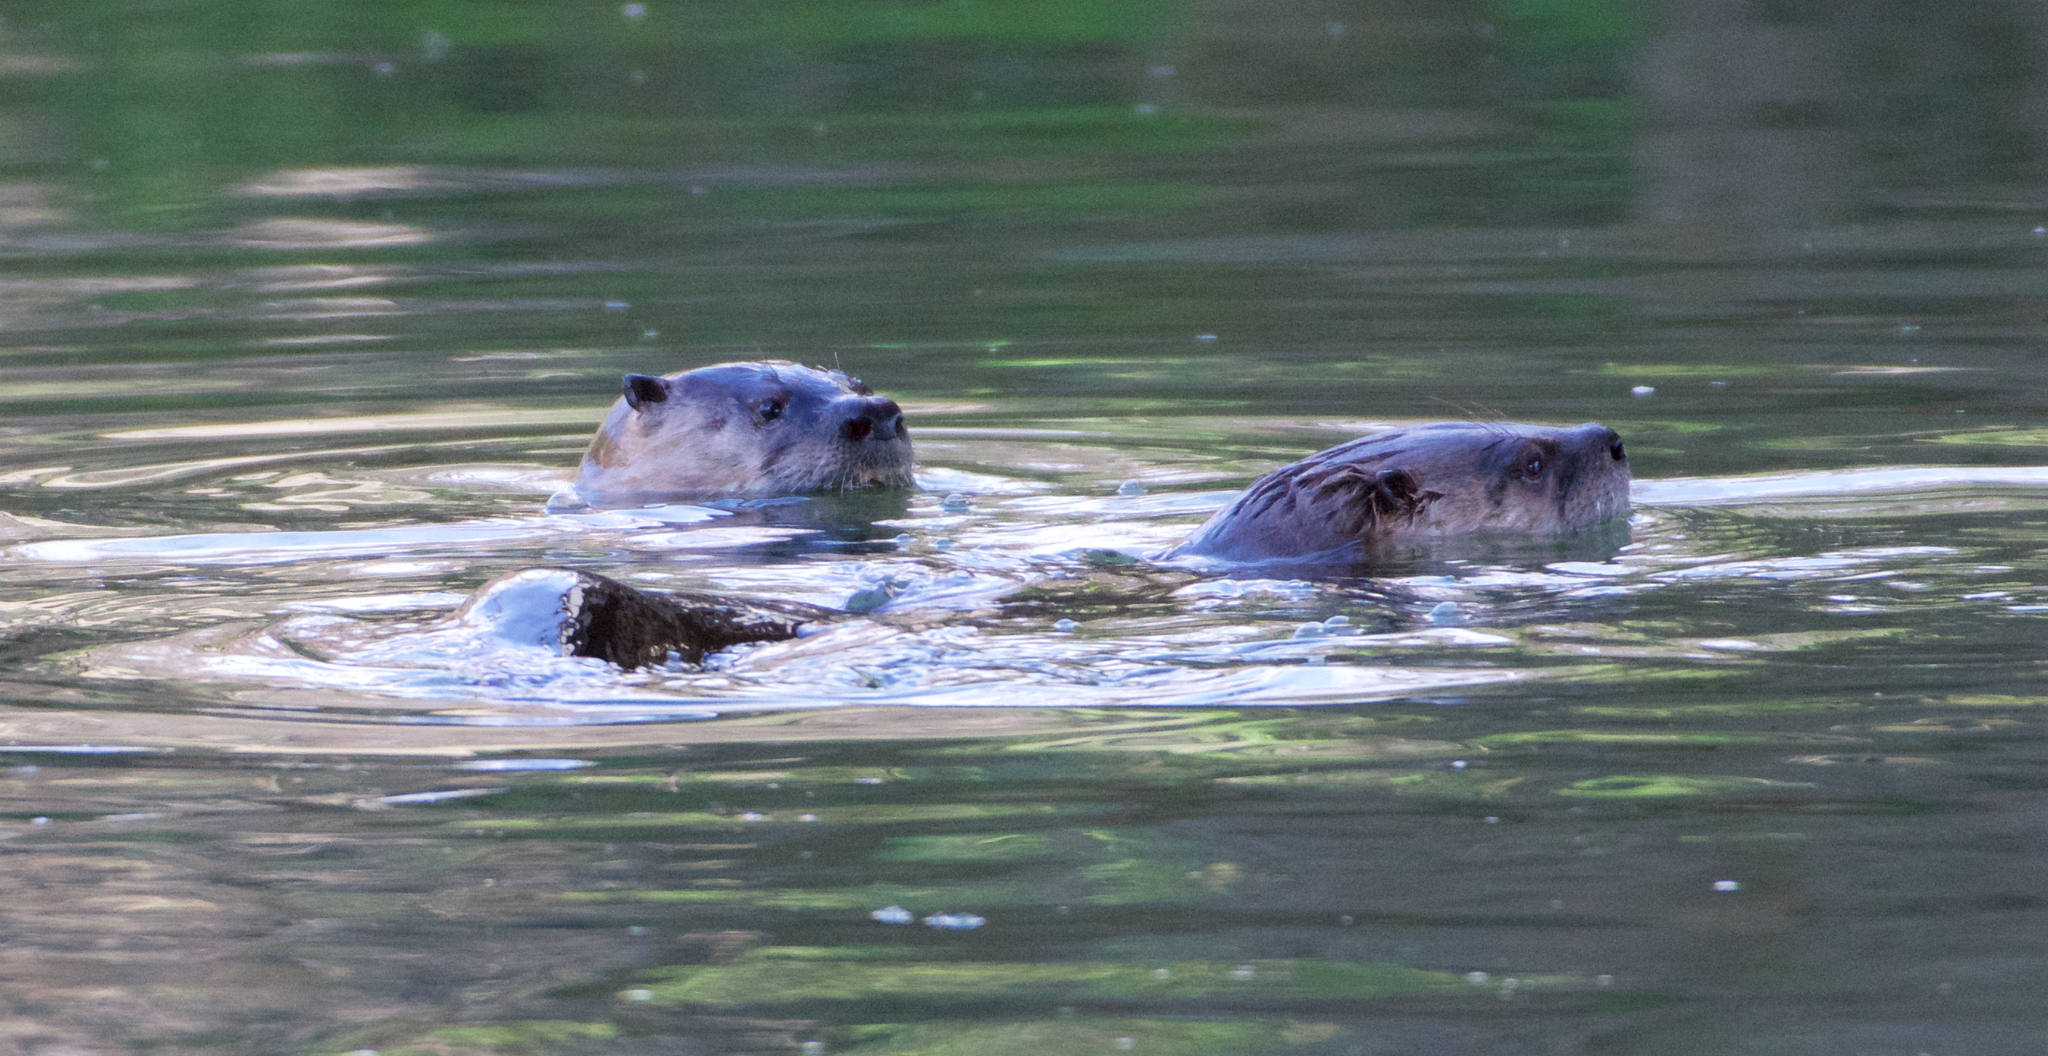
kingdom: Animalia
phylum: Chordata
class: Mammalia
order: Carnivora
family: Mustelidae
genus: Lontra
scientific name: Lontra canadensis
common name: North american river otter
